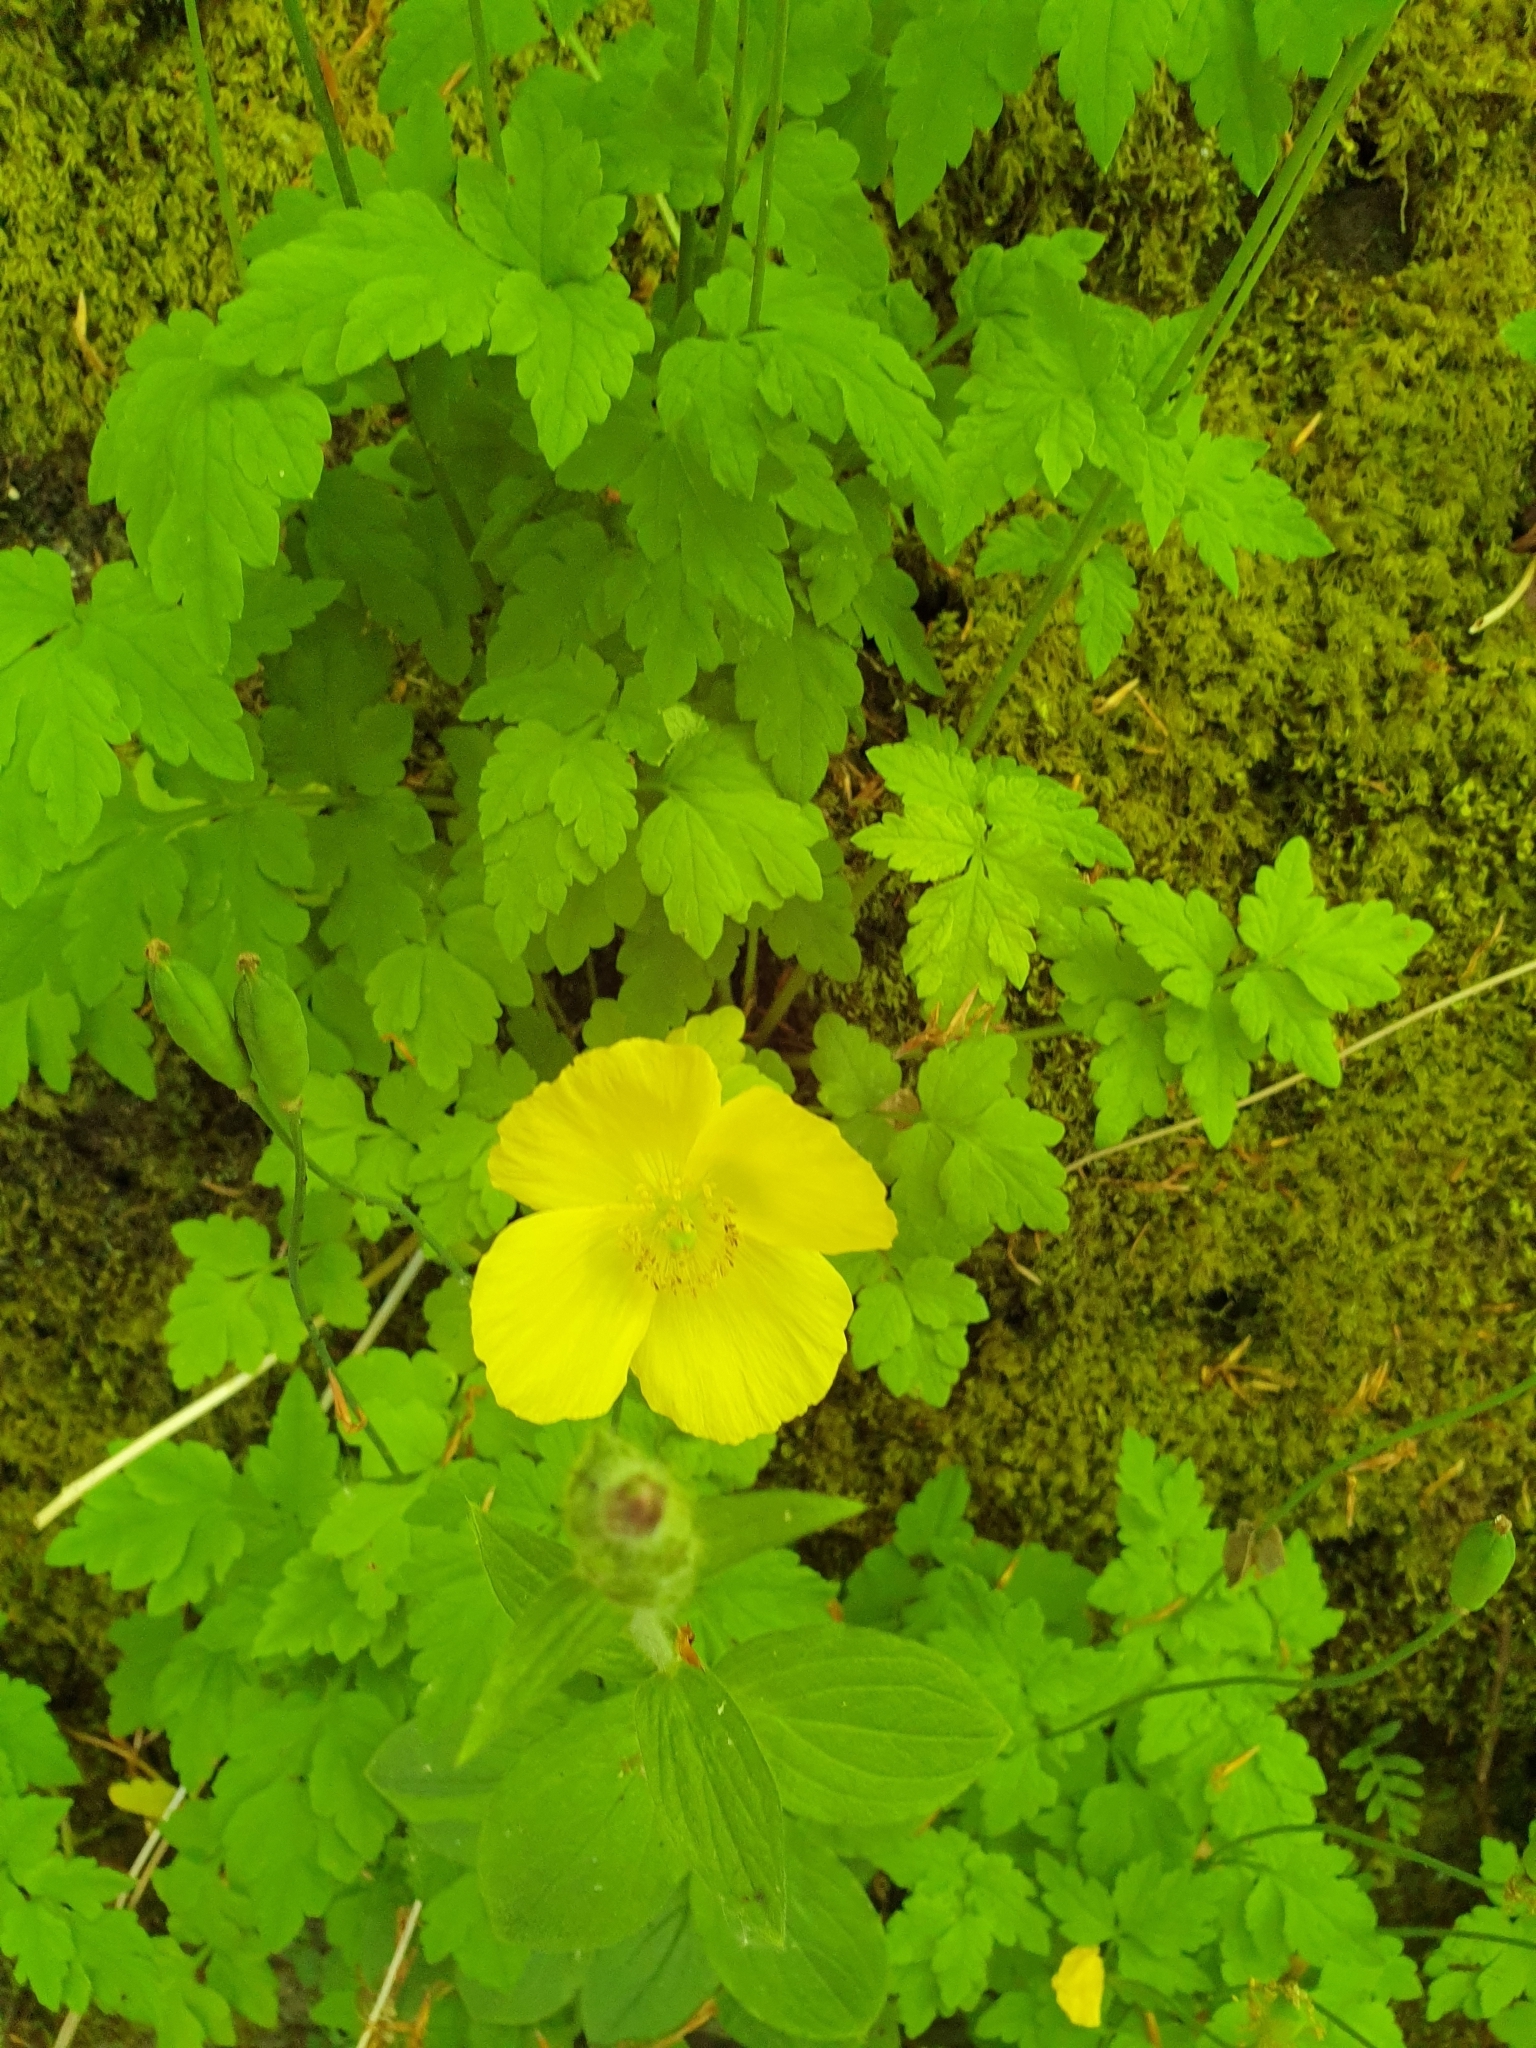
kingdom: Plantae
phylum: Tracheophyta
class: Magnoliopsida
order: Ranunculales
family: Papaveraceae
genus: Papaver
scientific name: Papaver cambricum
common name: Poppy
